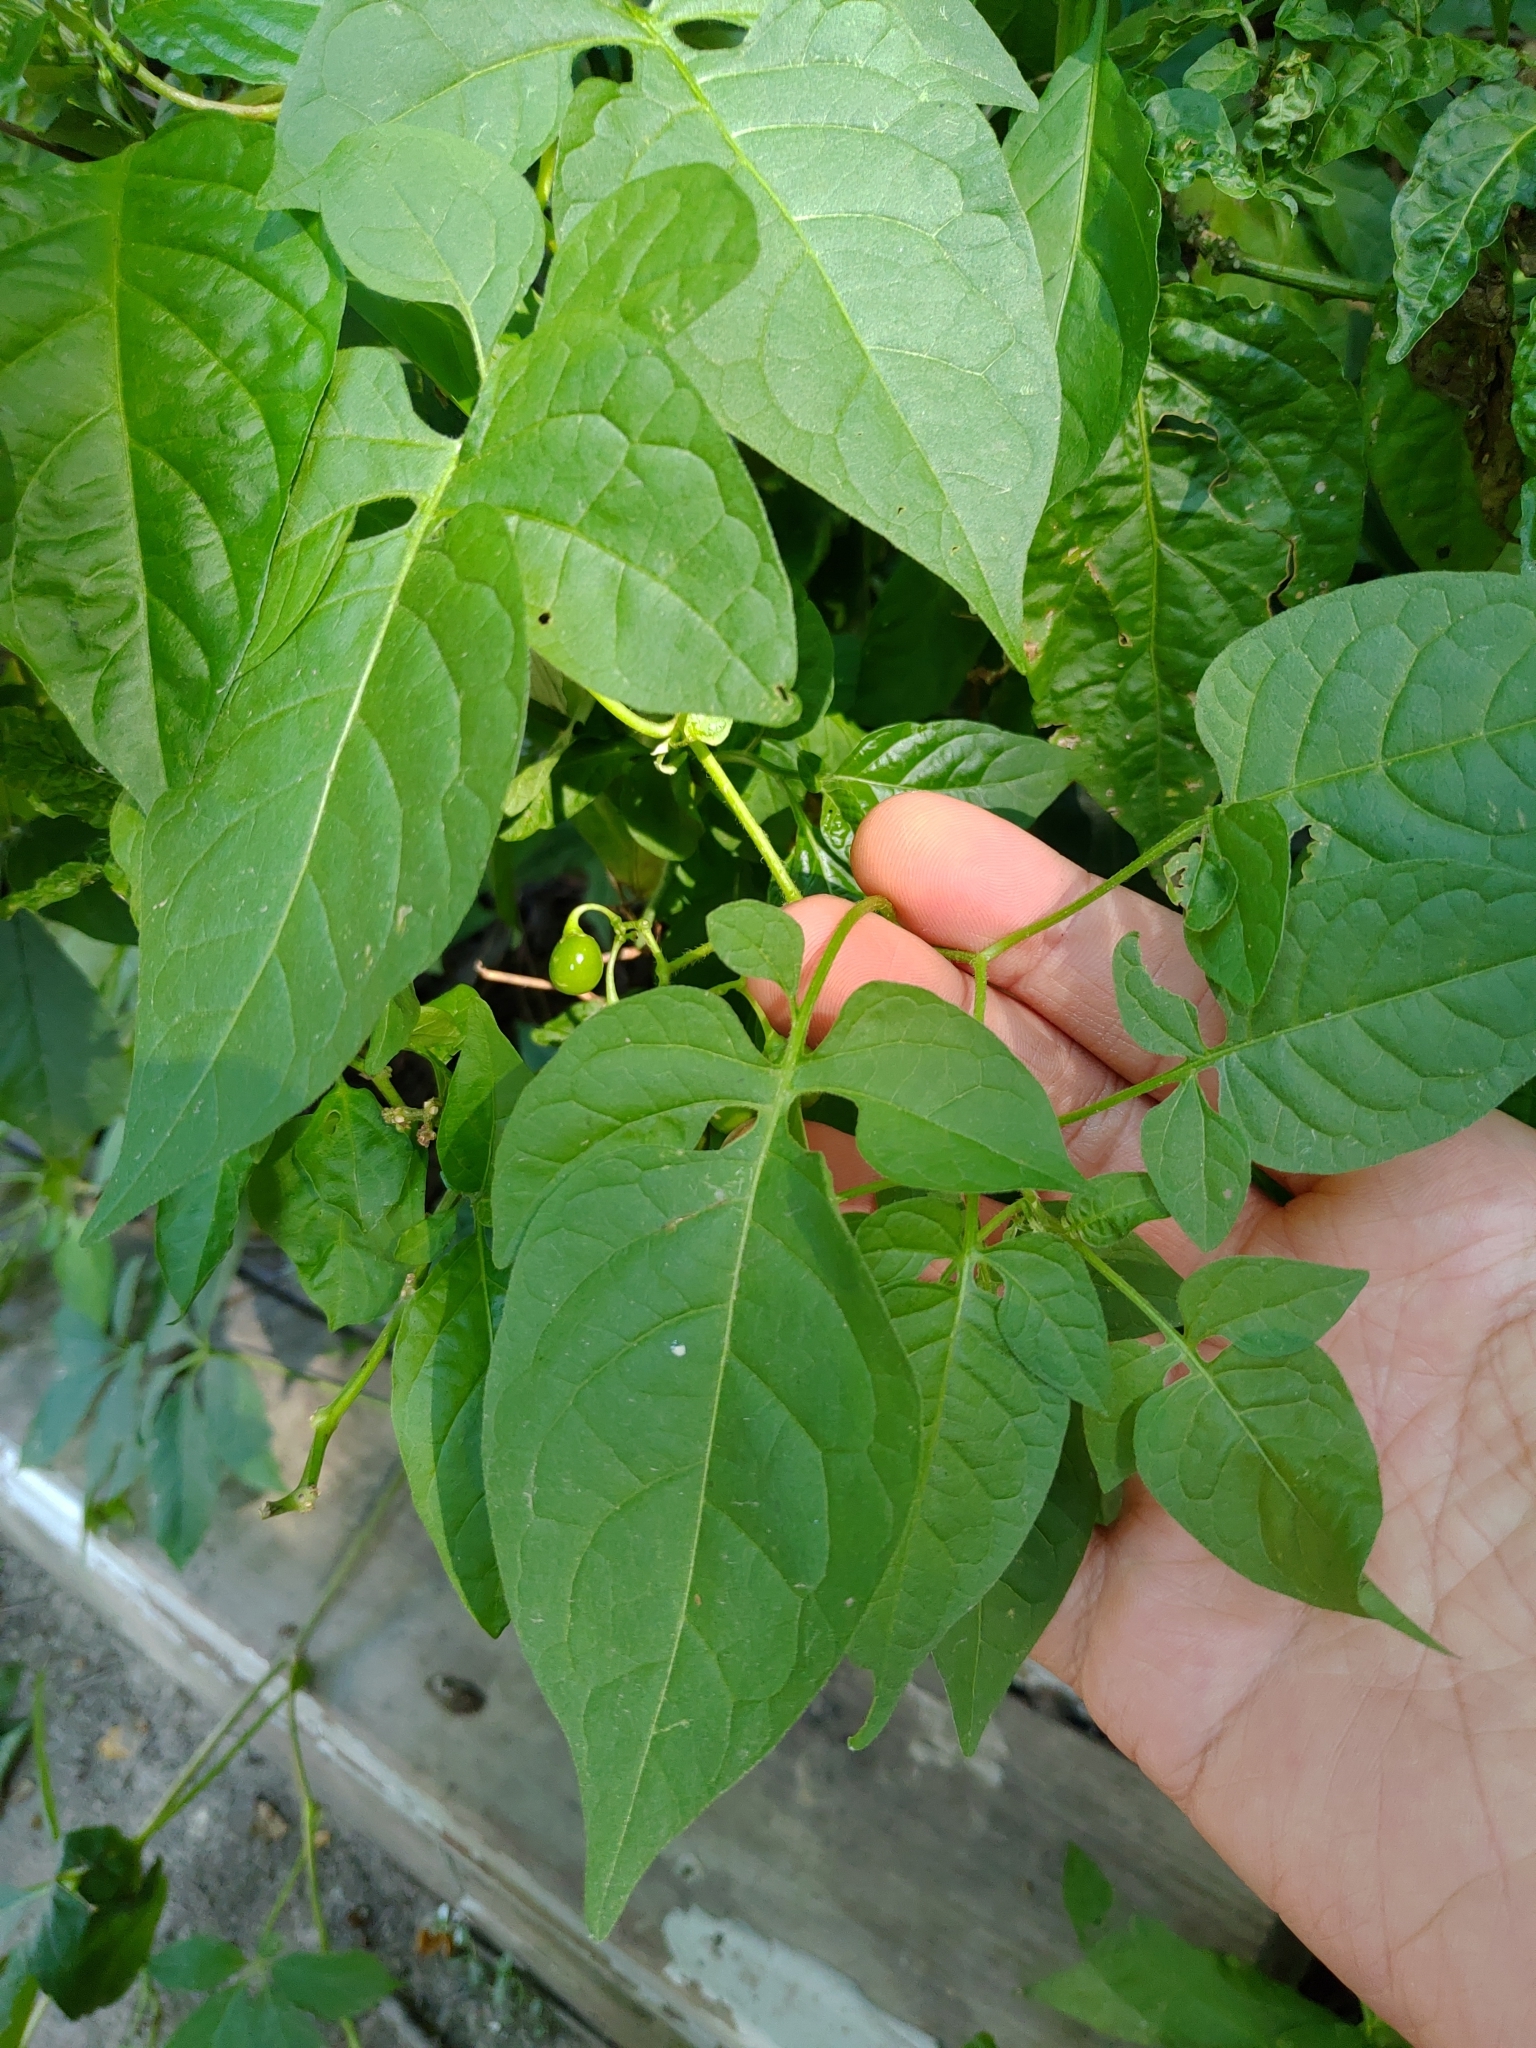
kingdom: Plantae
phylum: Tracheophyta
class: Magnoliopsida
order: Solanales
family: Solanaceae
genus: Solanum
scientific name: Solanum dulcamara
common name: Climbing nightshade
